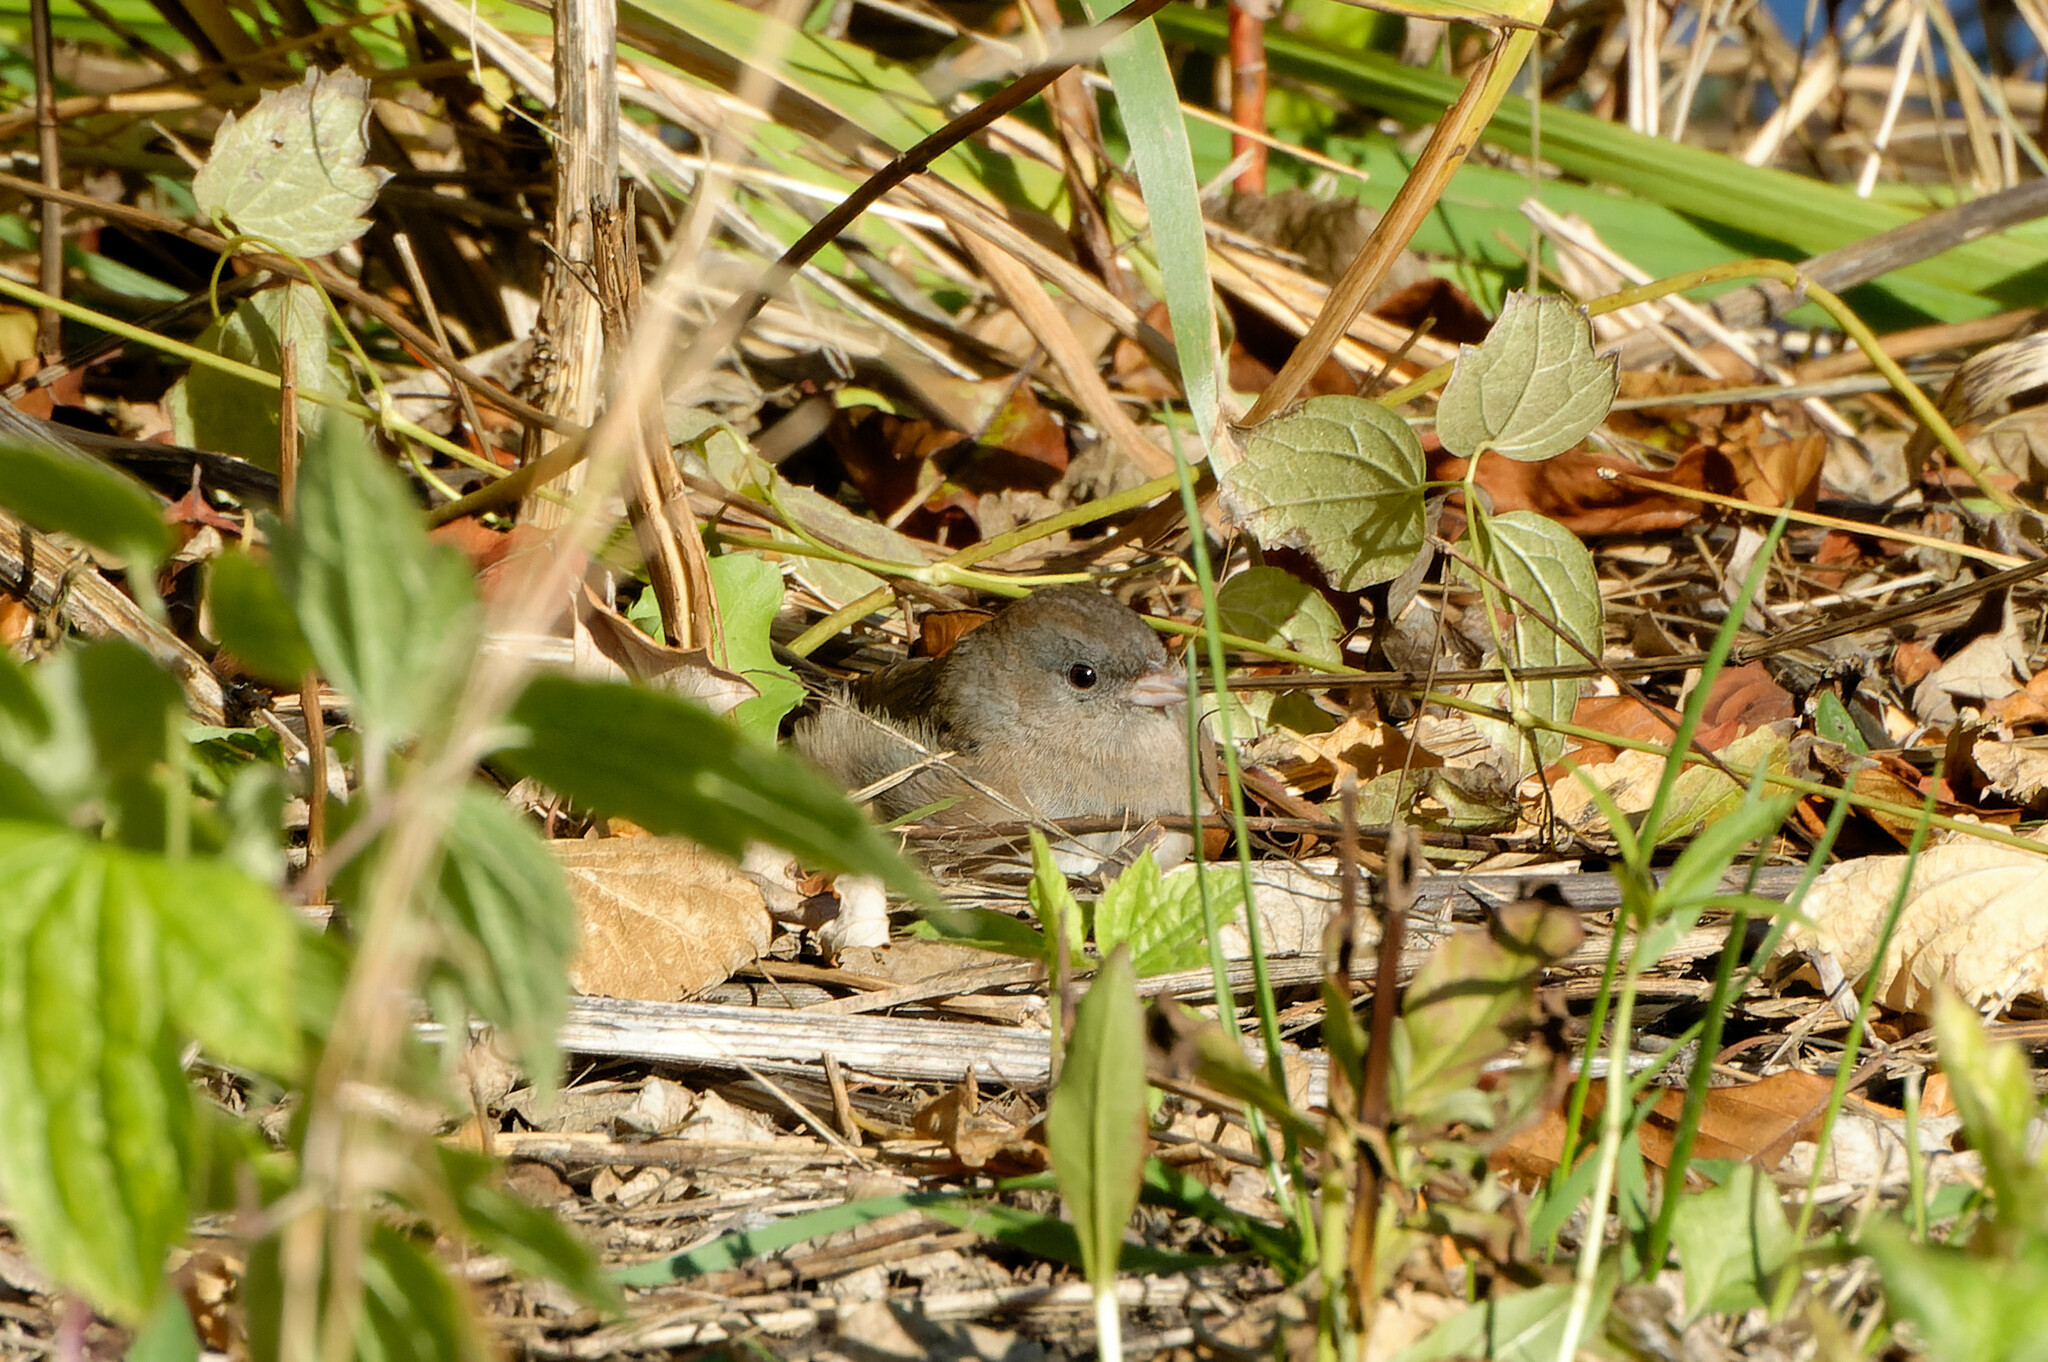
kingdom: Animalia
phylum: Chordata
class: Aves
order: Passeriformes
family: Passerellidae
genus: Junco
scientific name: Junco hyemalis
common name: Dark-eyed junco
